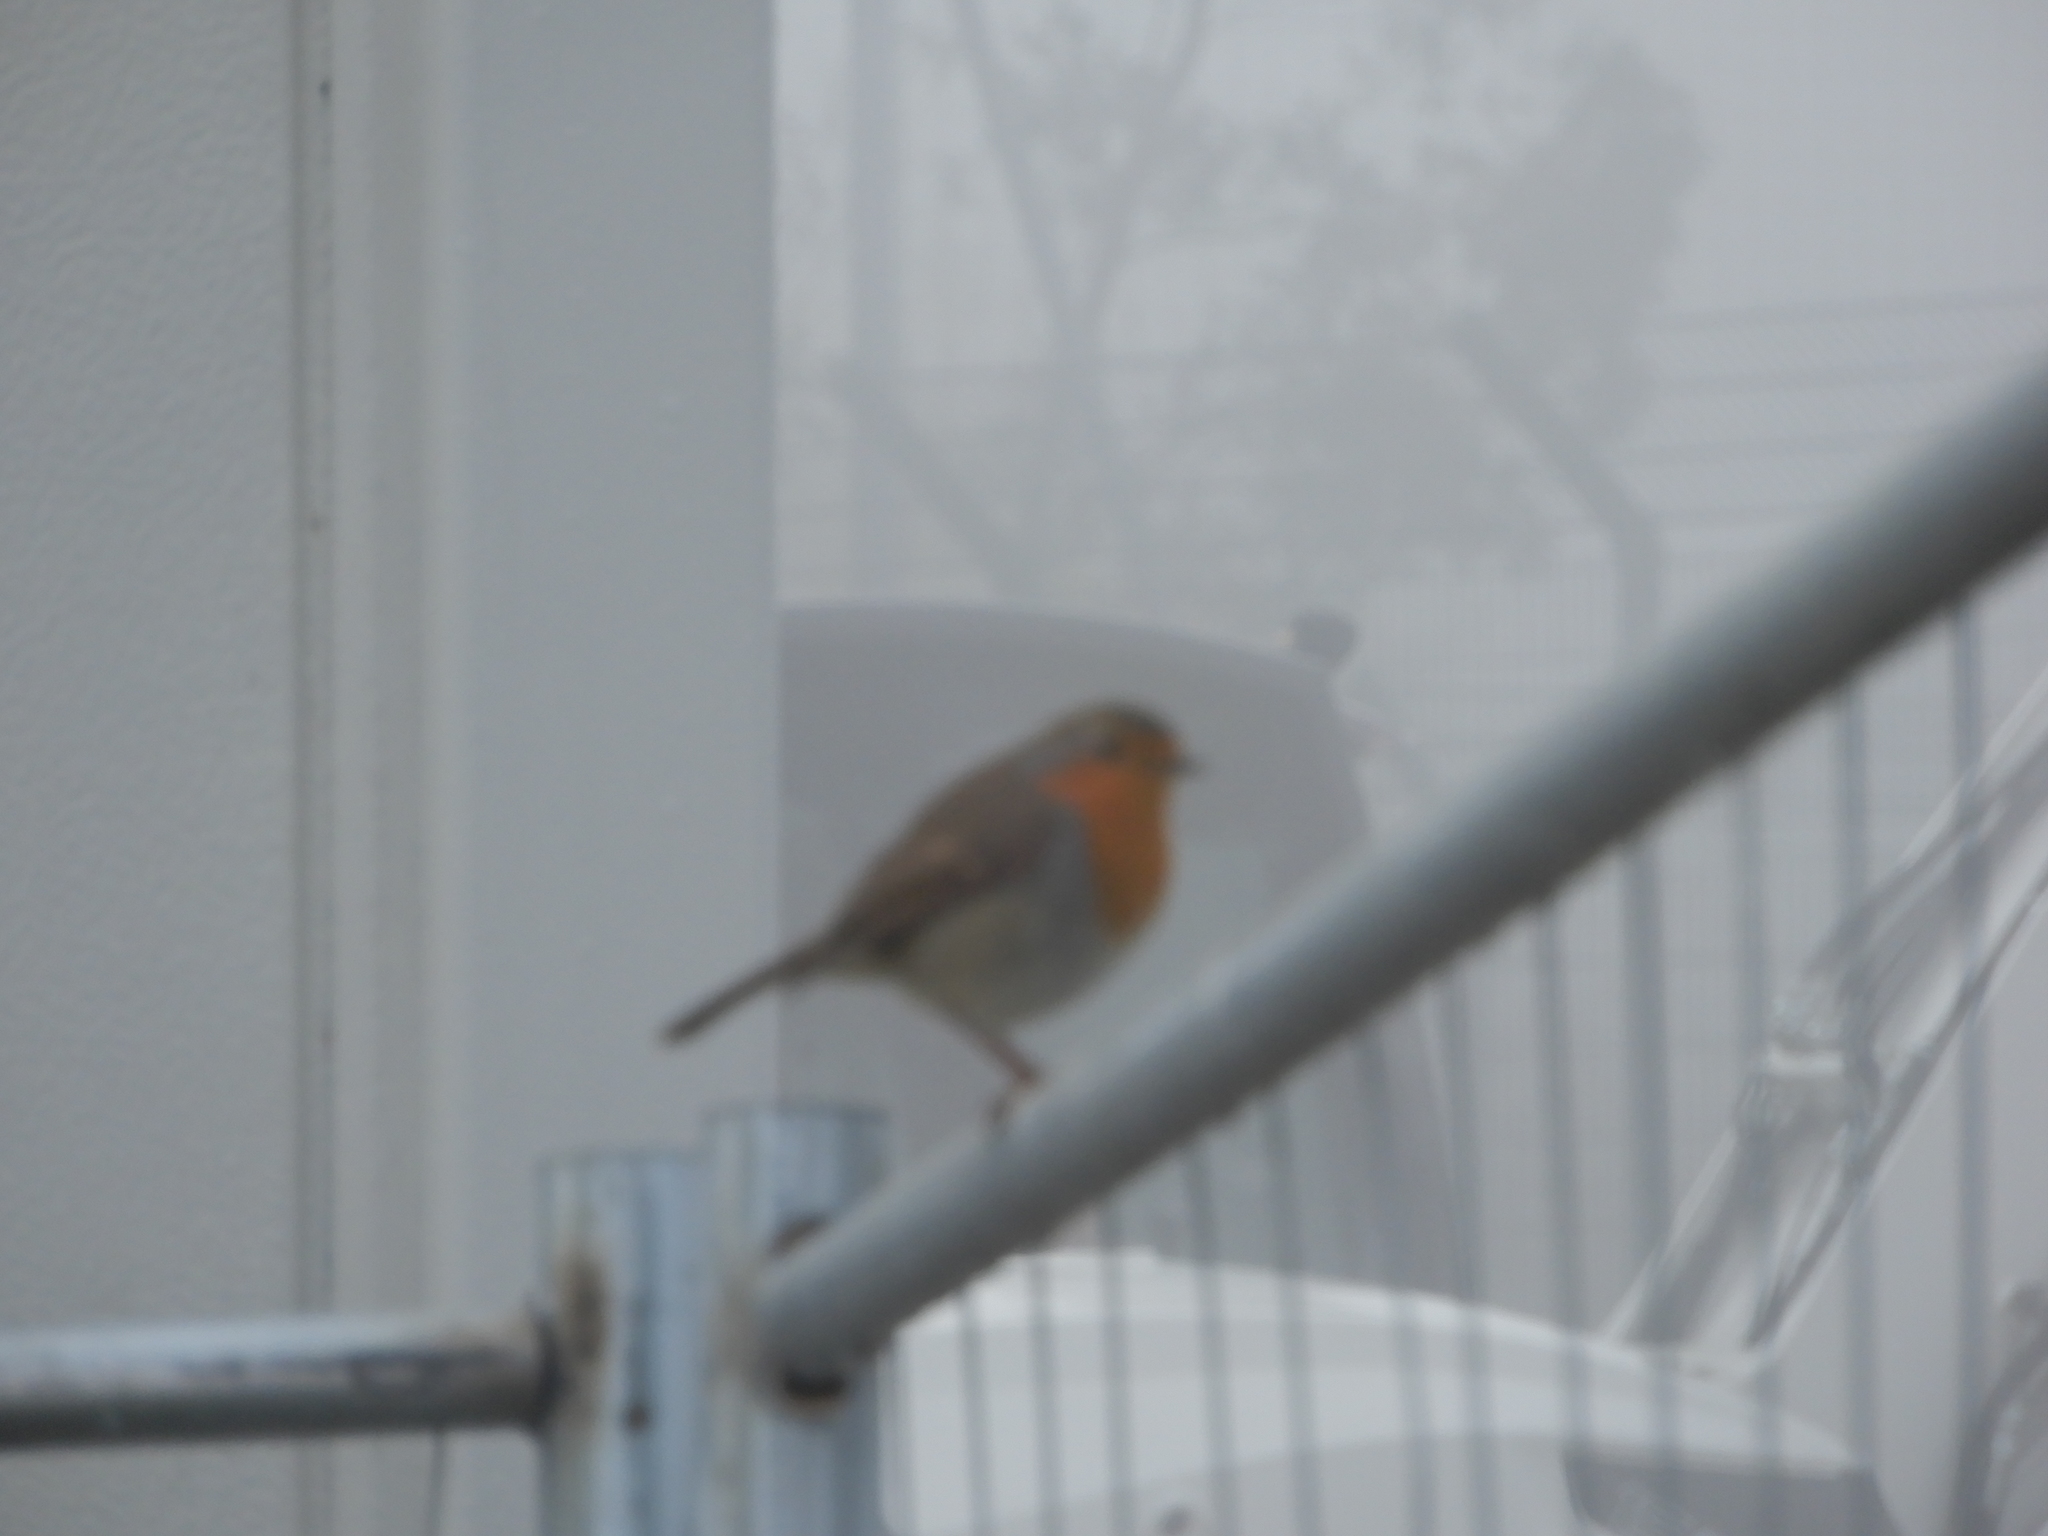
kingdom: Animalia
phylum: Chordata
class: Aves
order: Passeriformes
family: Muscicapidae
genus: Erithacus
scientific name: Erithacus rubecula
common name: European robin
